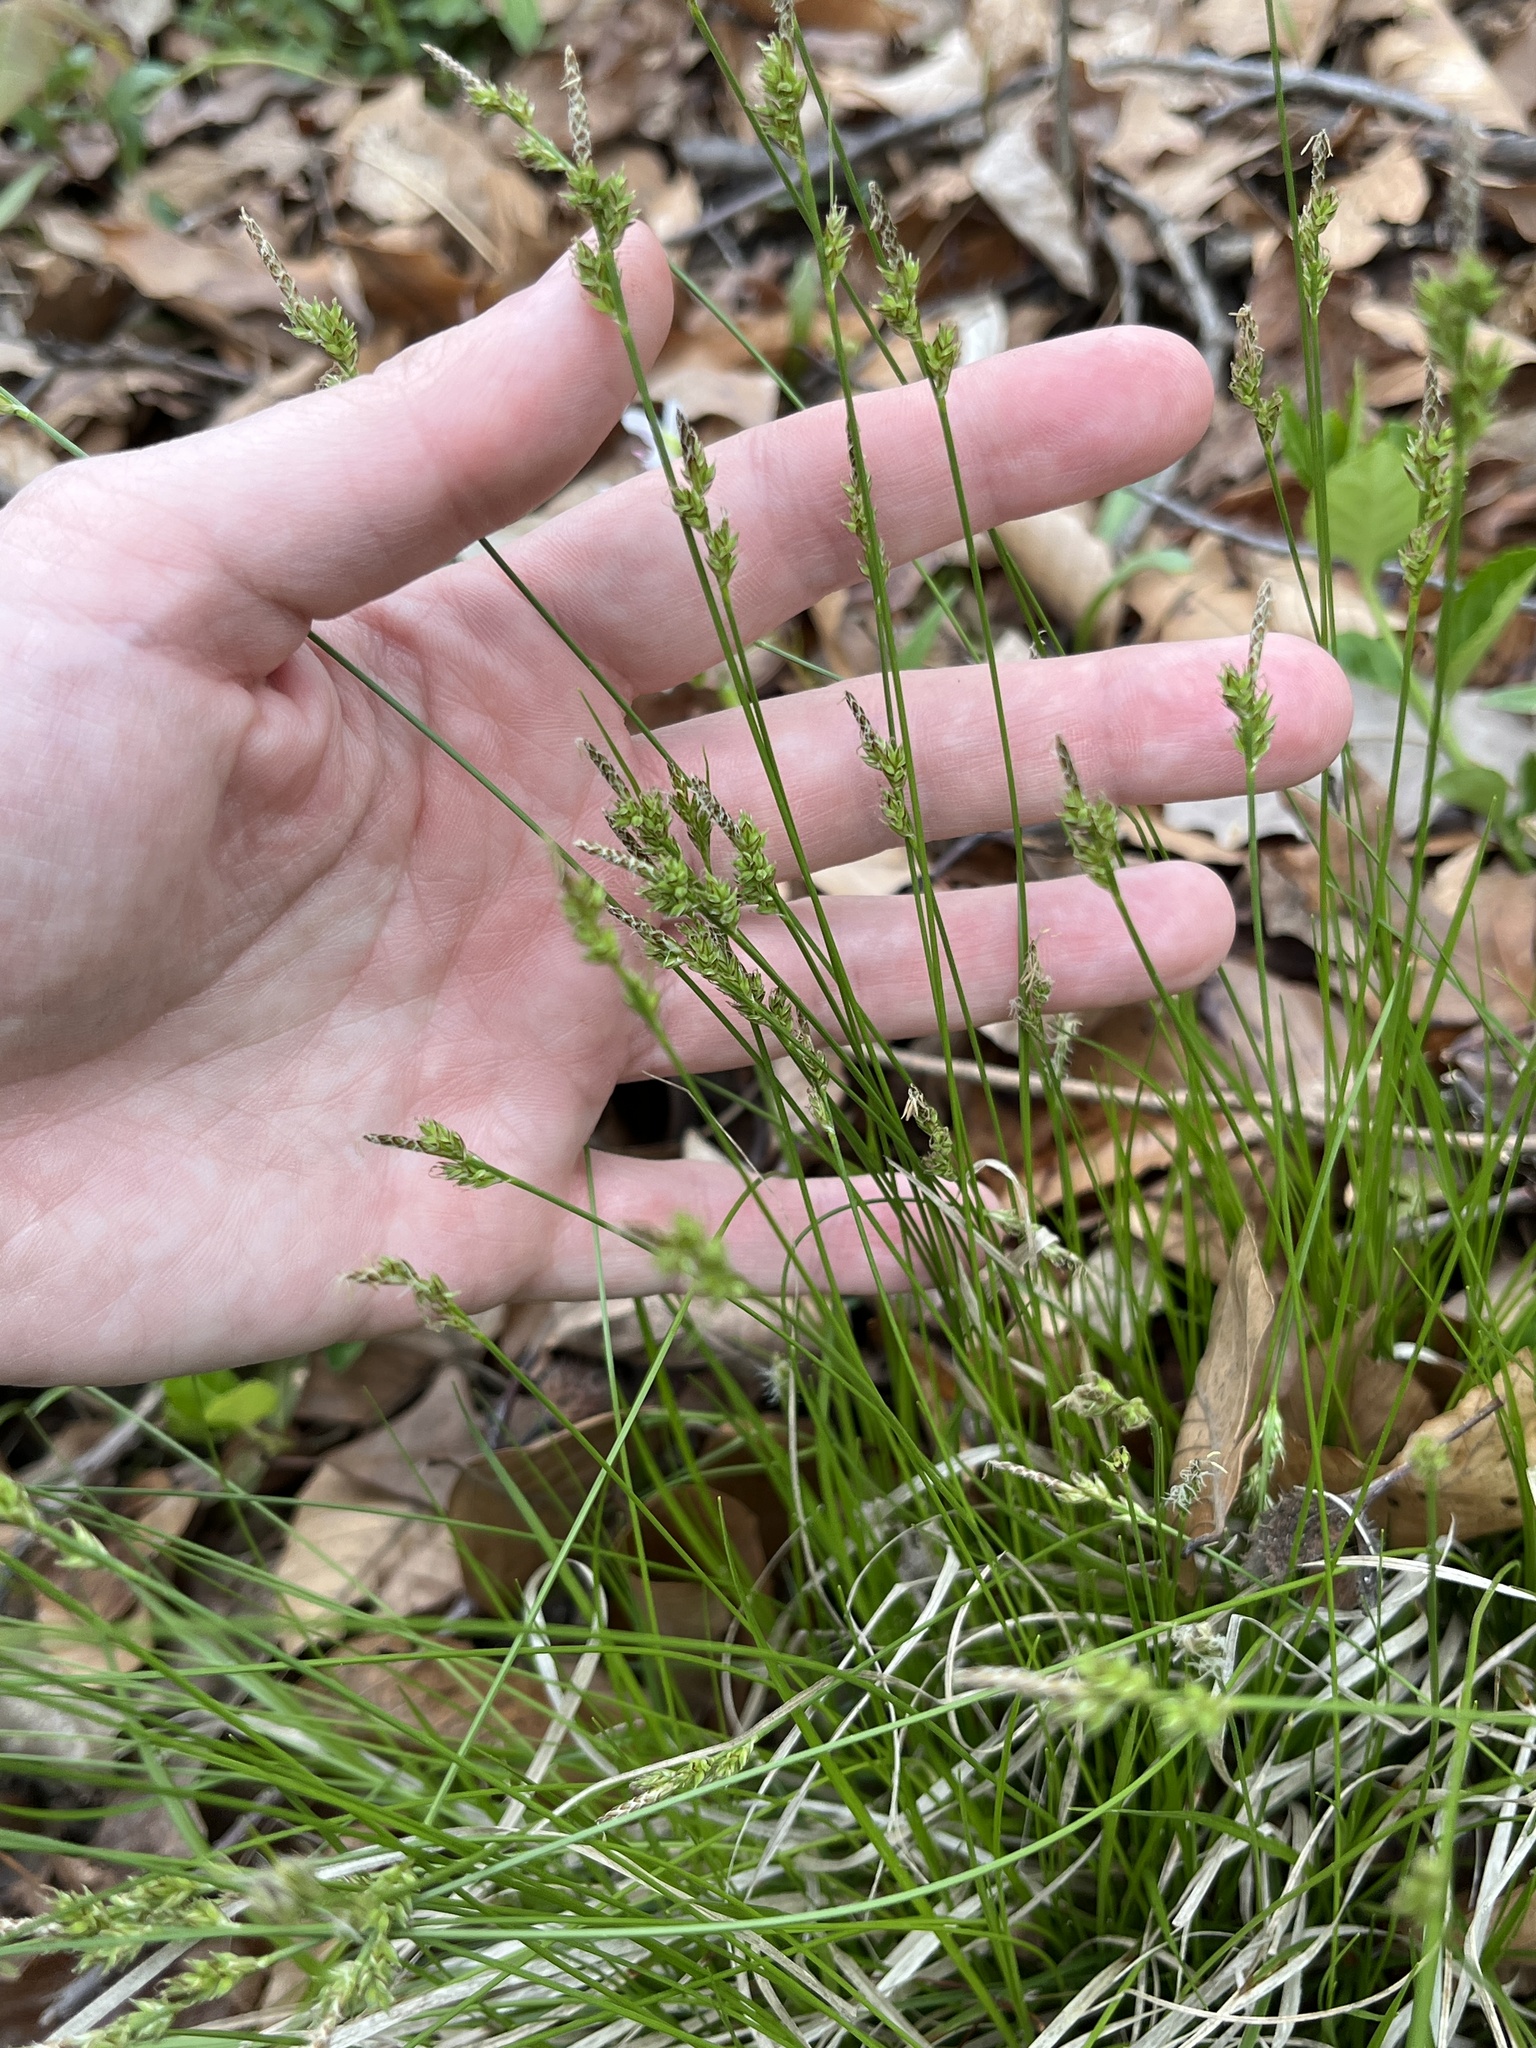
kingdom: Plantae
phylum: Tracheophyta
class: Liliopsida
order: Poales
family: Cyperaceae
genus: Carex
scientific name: Carex albicans
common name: Bellow-beaked sedge
